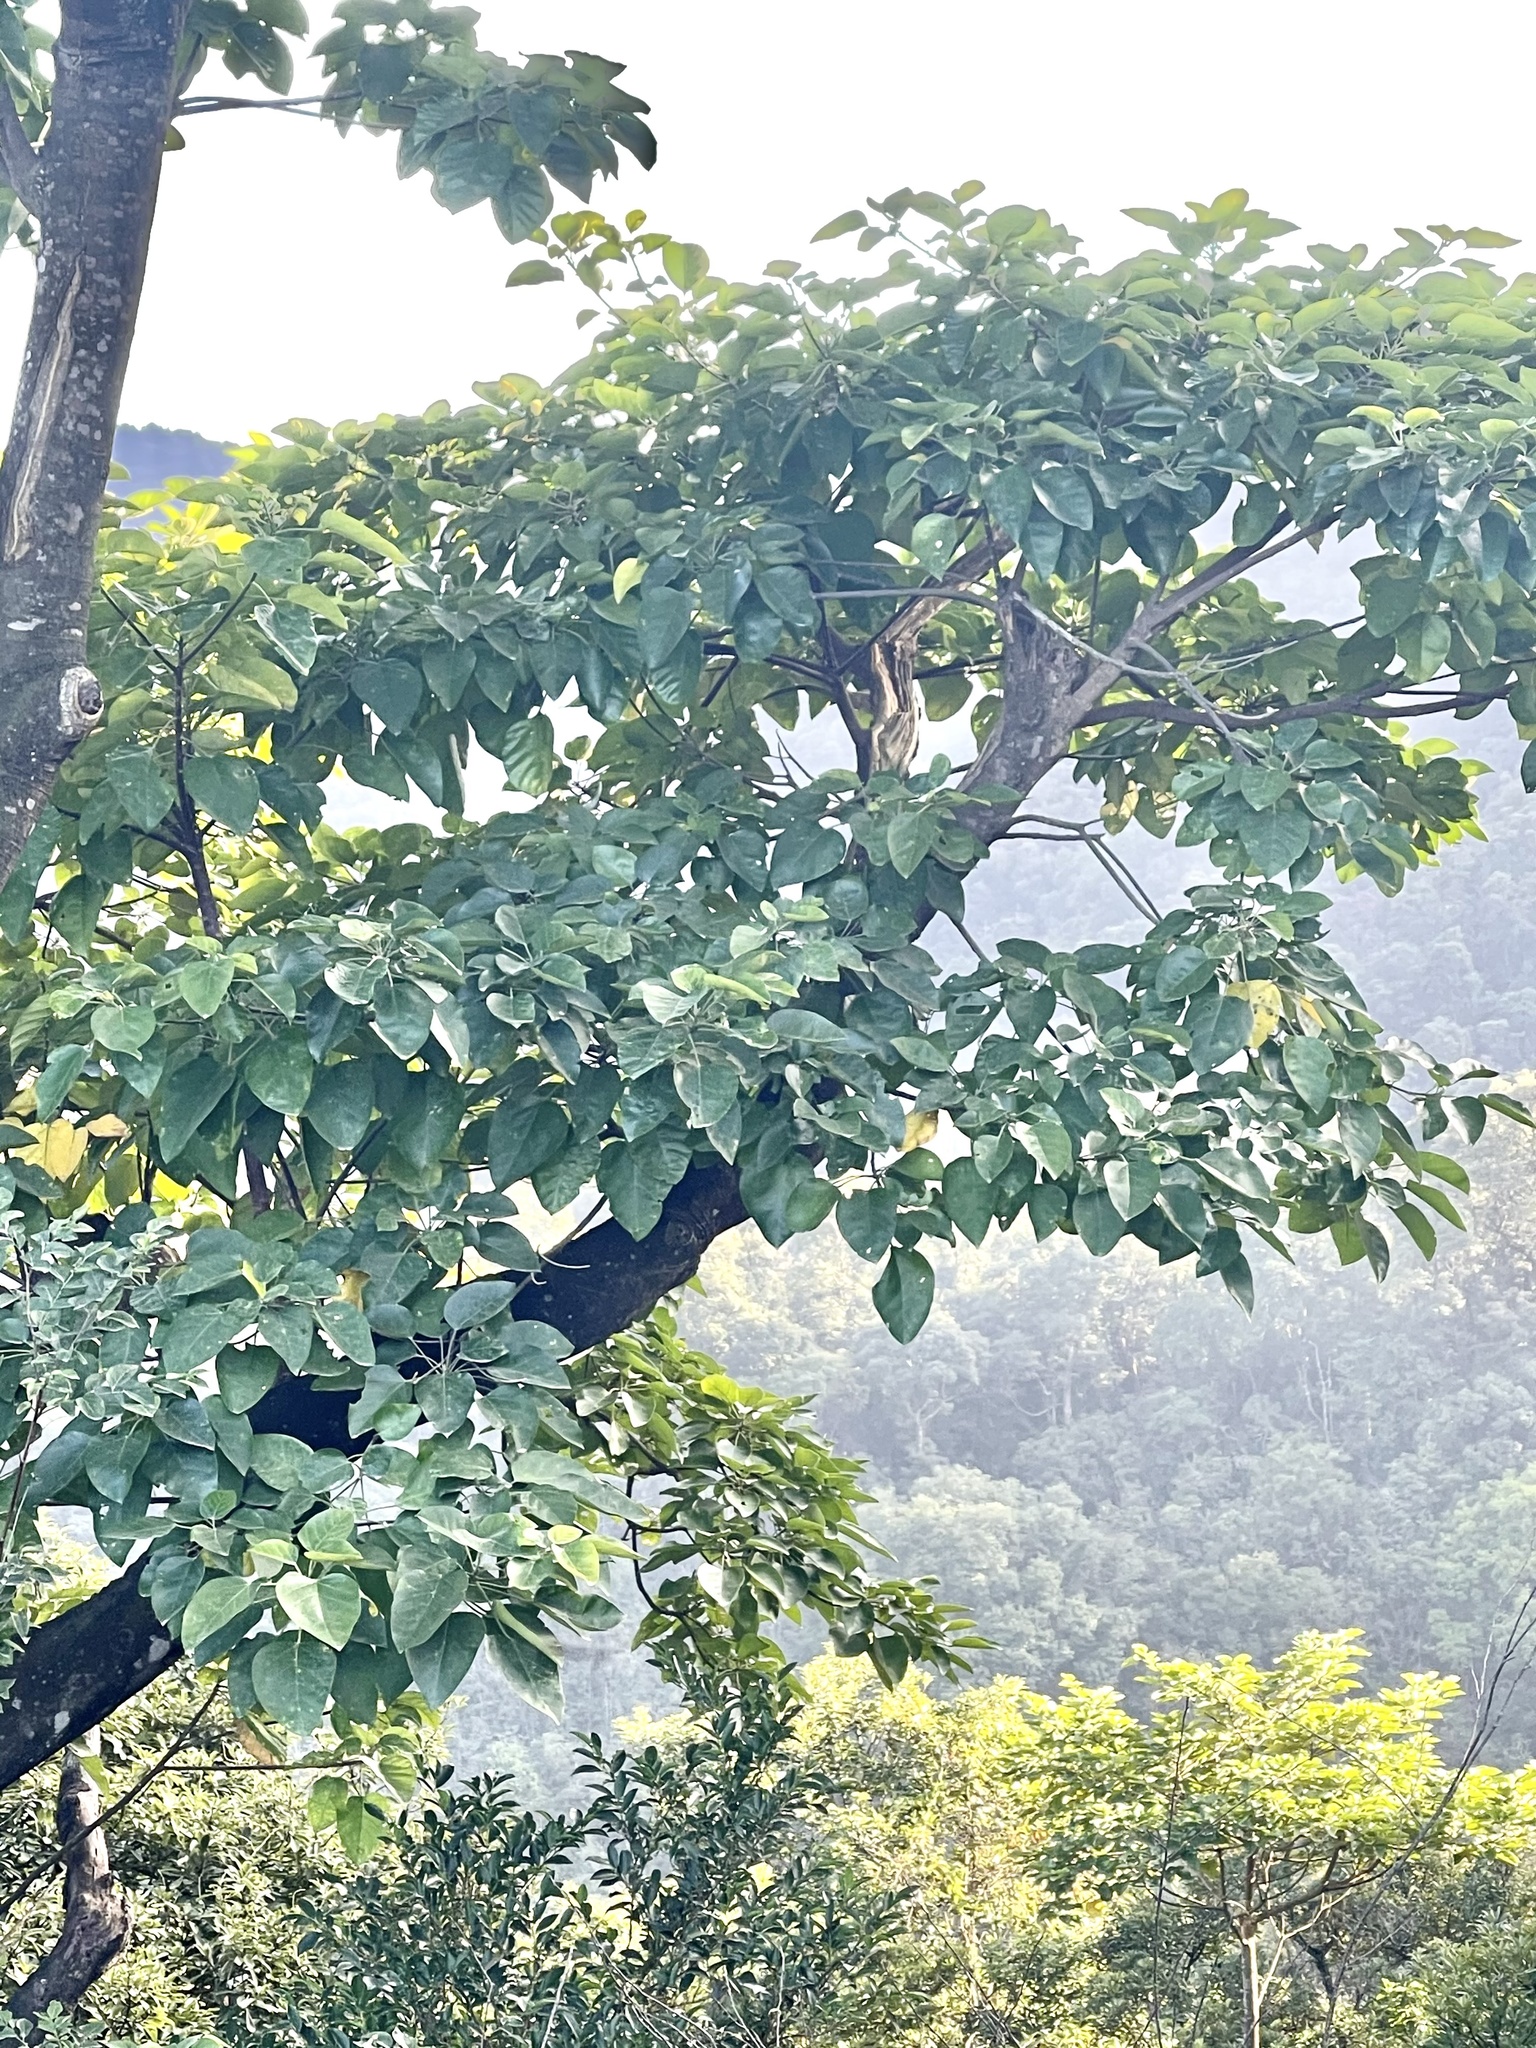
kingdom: Plantae
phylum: Tracheophyta
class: Magnoliopsida
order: Malpighiales
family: Euphorbiaceae
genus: Endospermum
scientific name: Endospermum chinense
